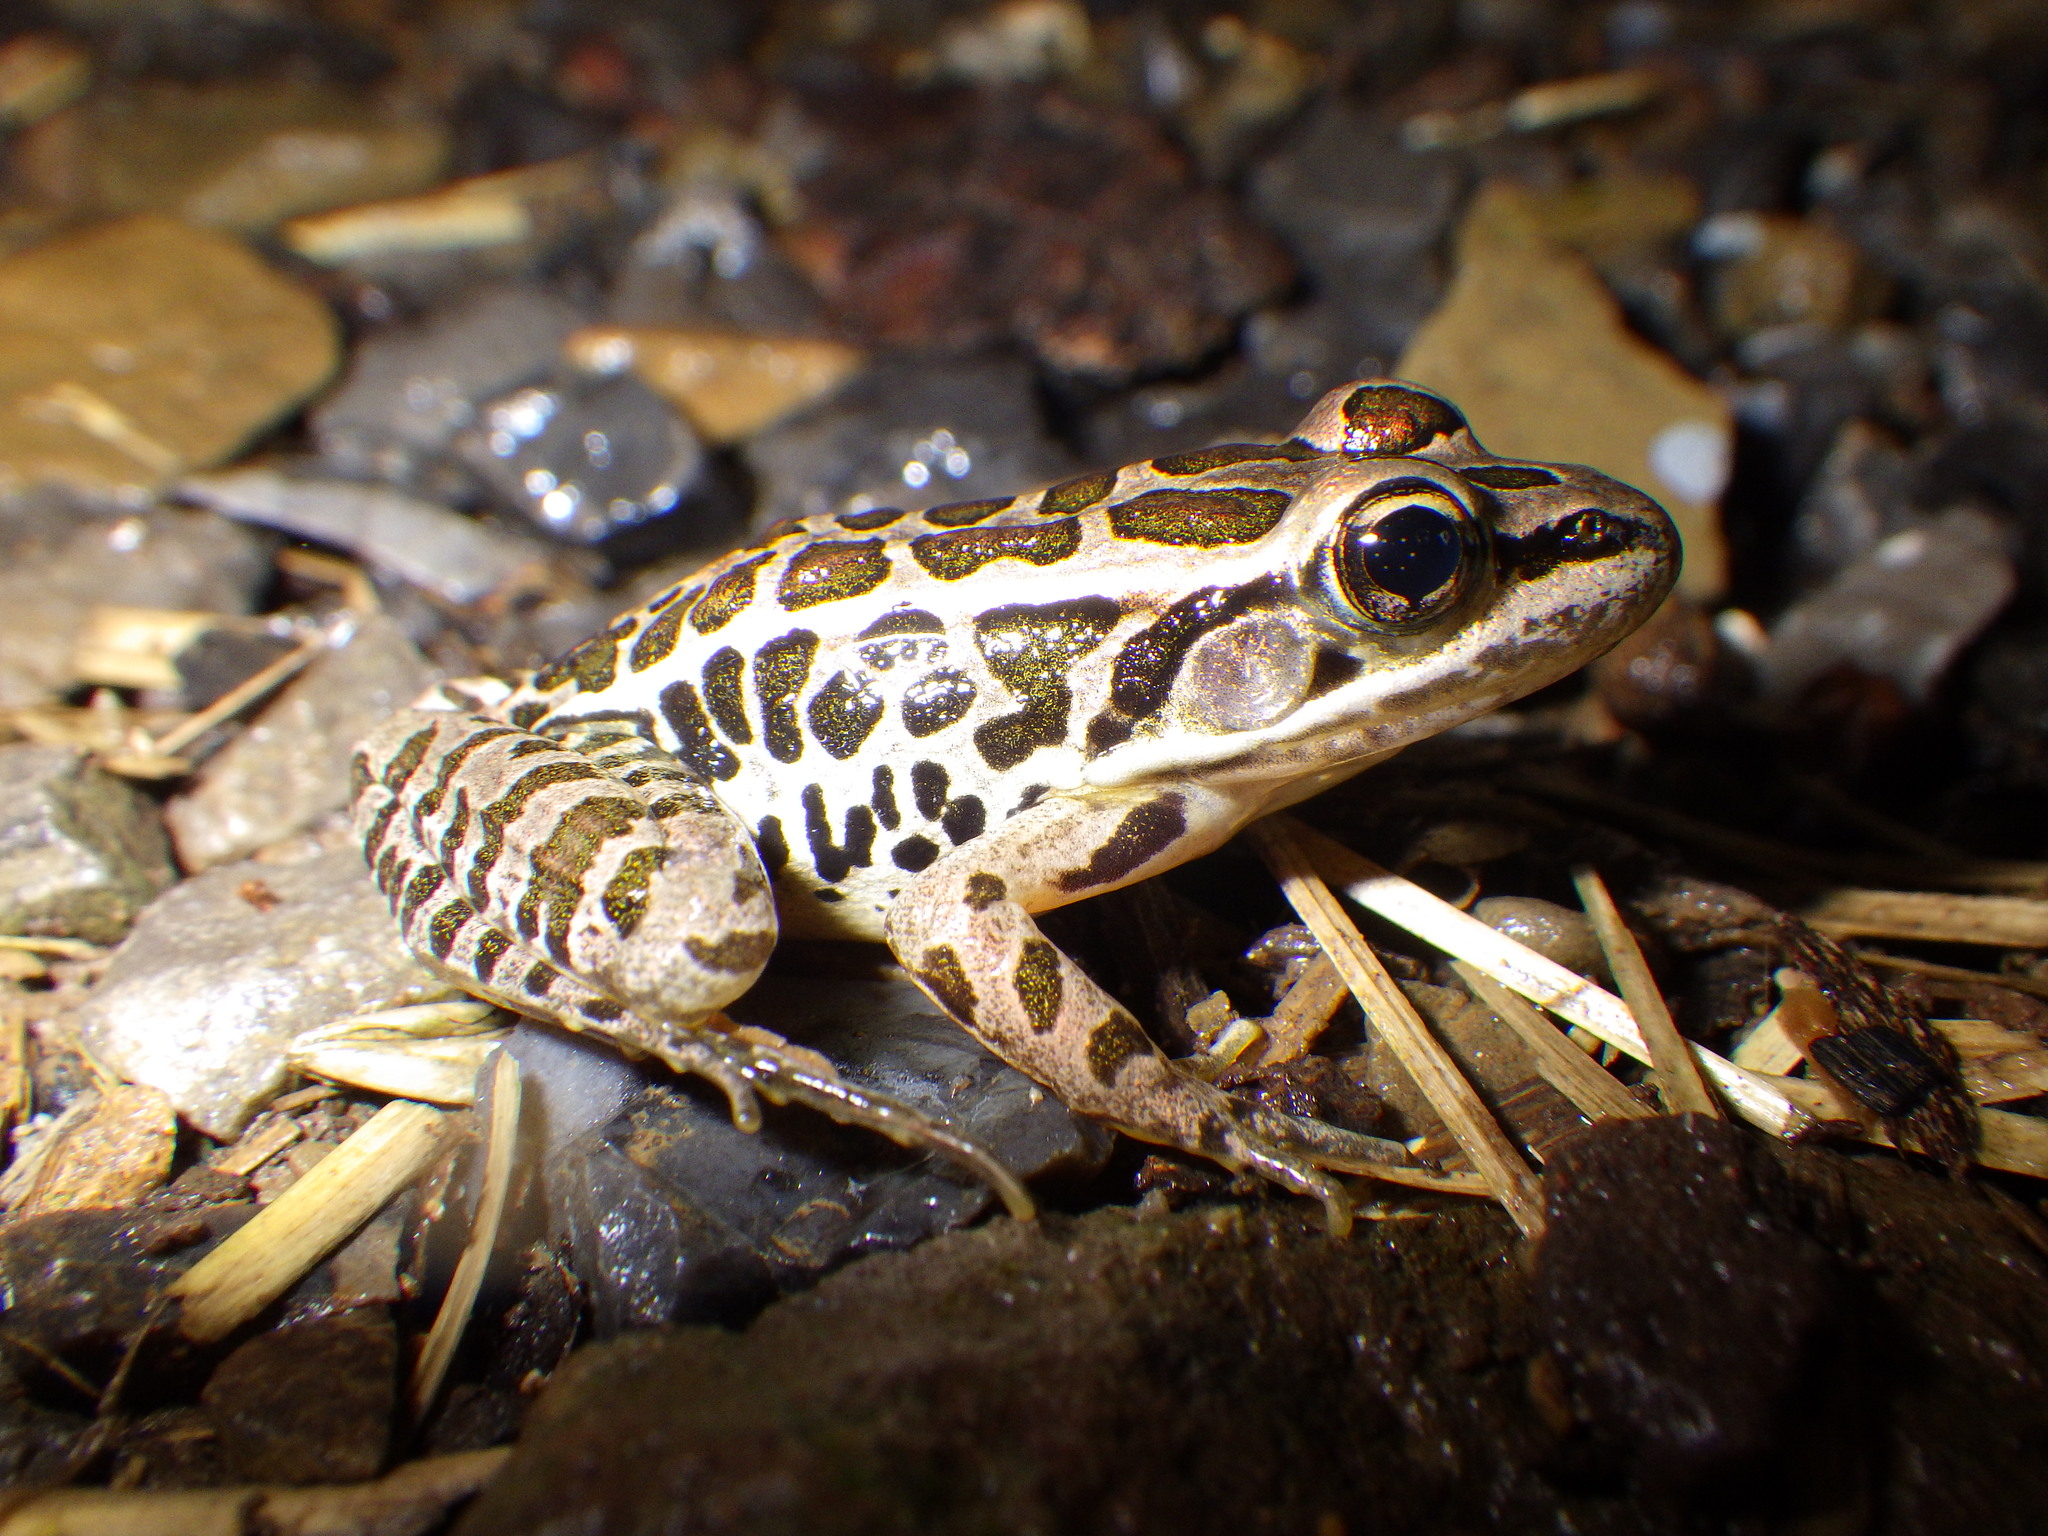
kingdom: Animalia
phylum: Chordata
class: Amphibia
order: Anura
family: Ranidae
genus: Lithobates
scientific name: Lithobates palustris
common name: Pickerel frog
